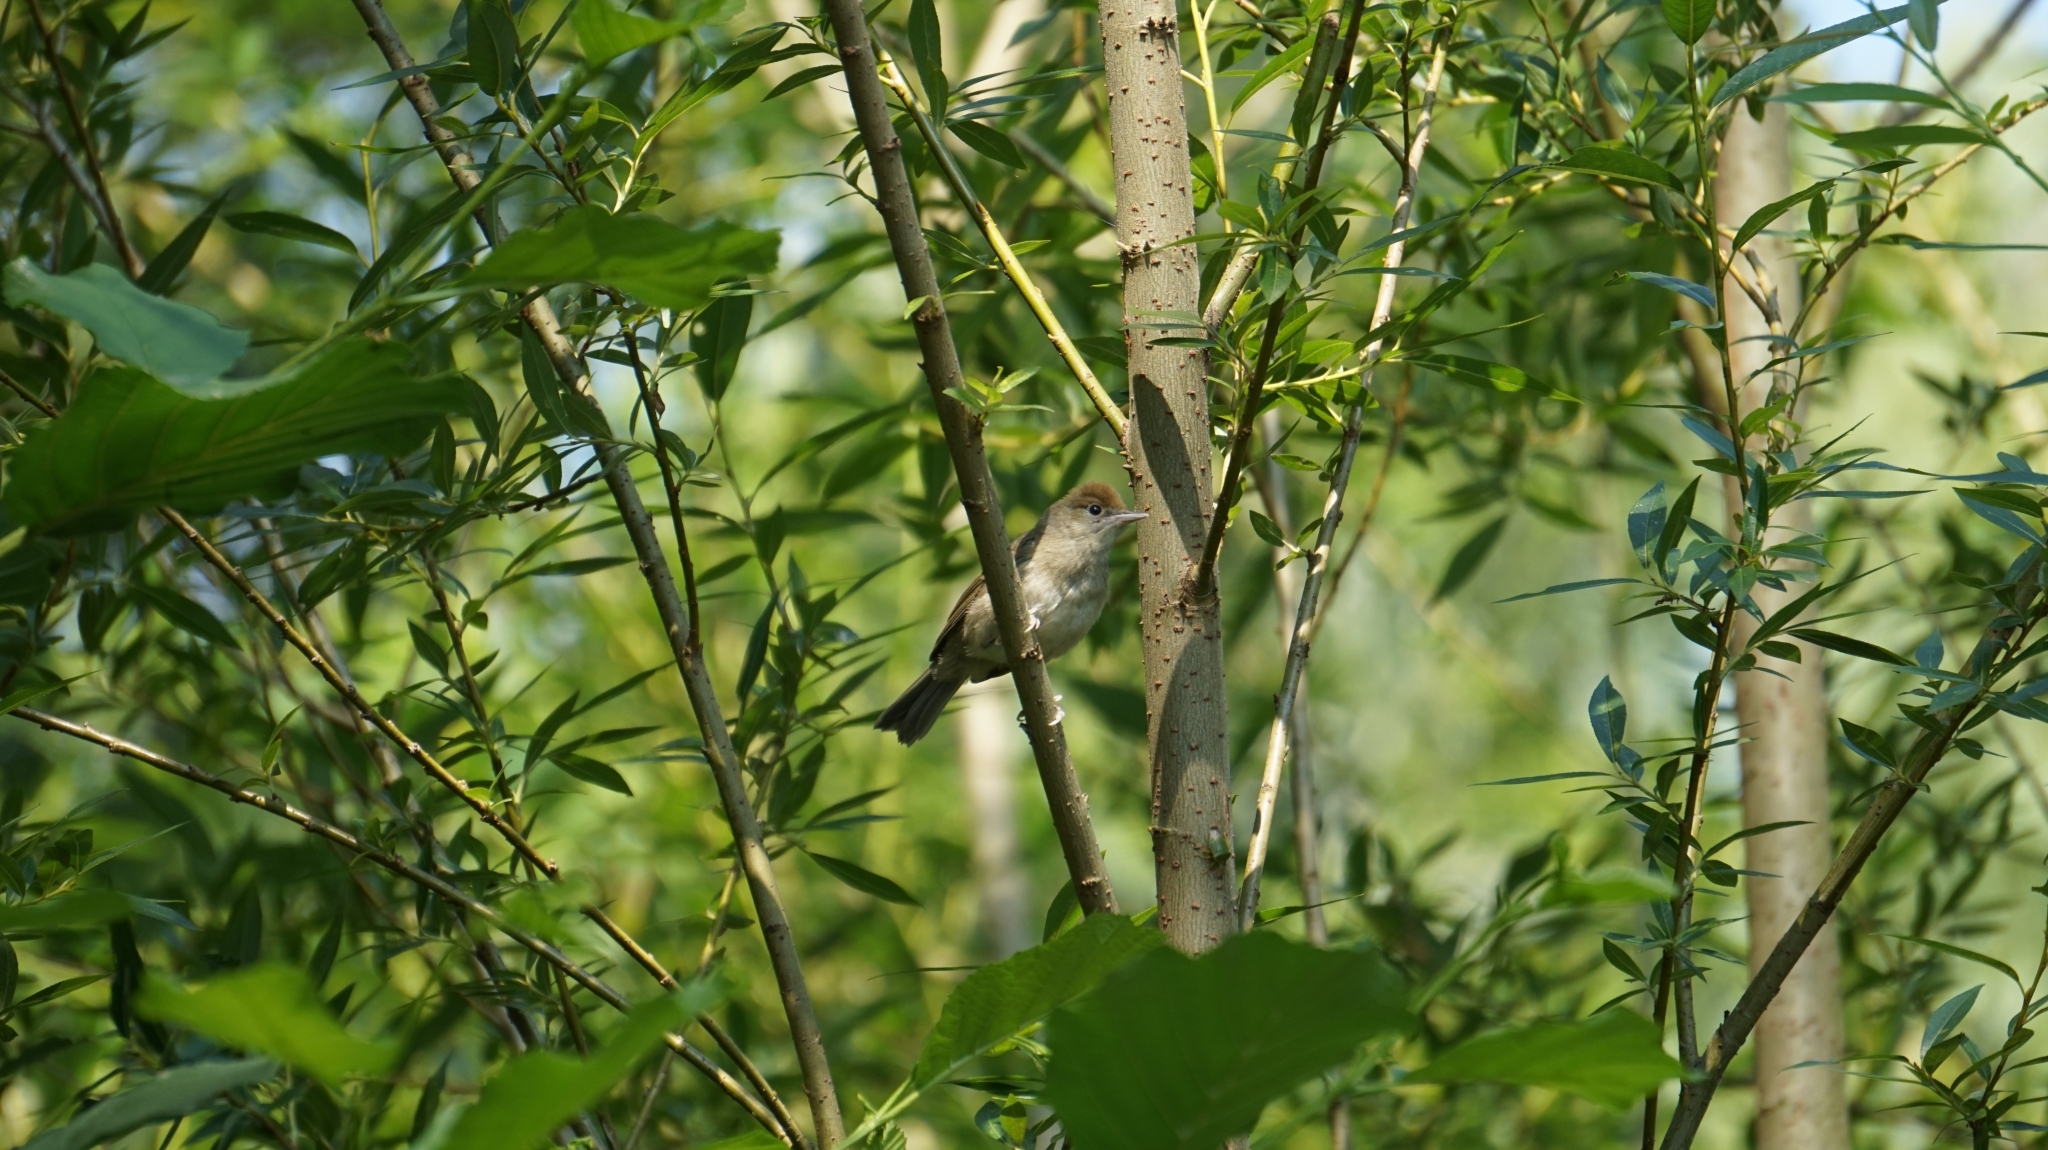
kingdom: Animalia
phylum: Chordata
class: Aves
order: Passeriformes
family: Sylviidae
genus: Sylvia
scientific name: Sylvia atricapilla
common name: Eurasian blackcap
